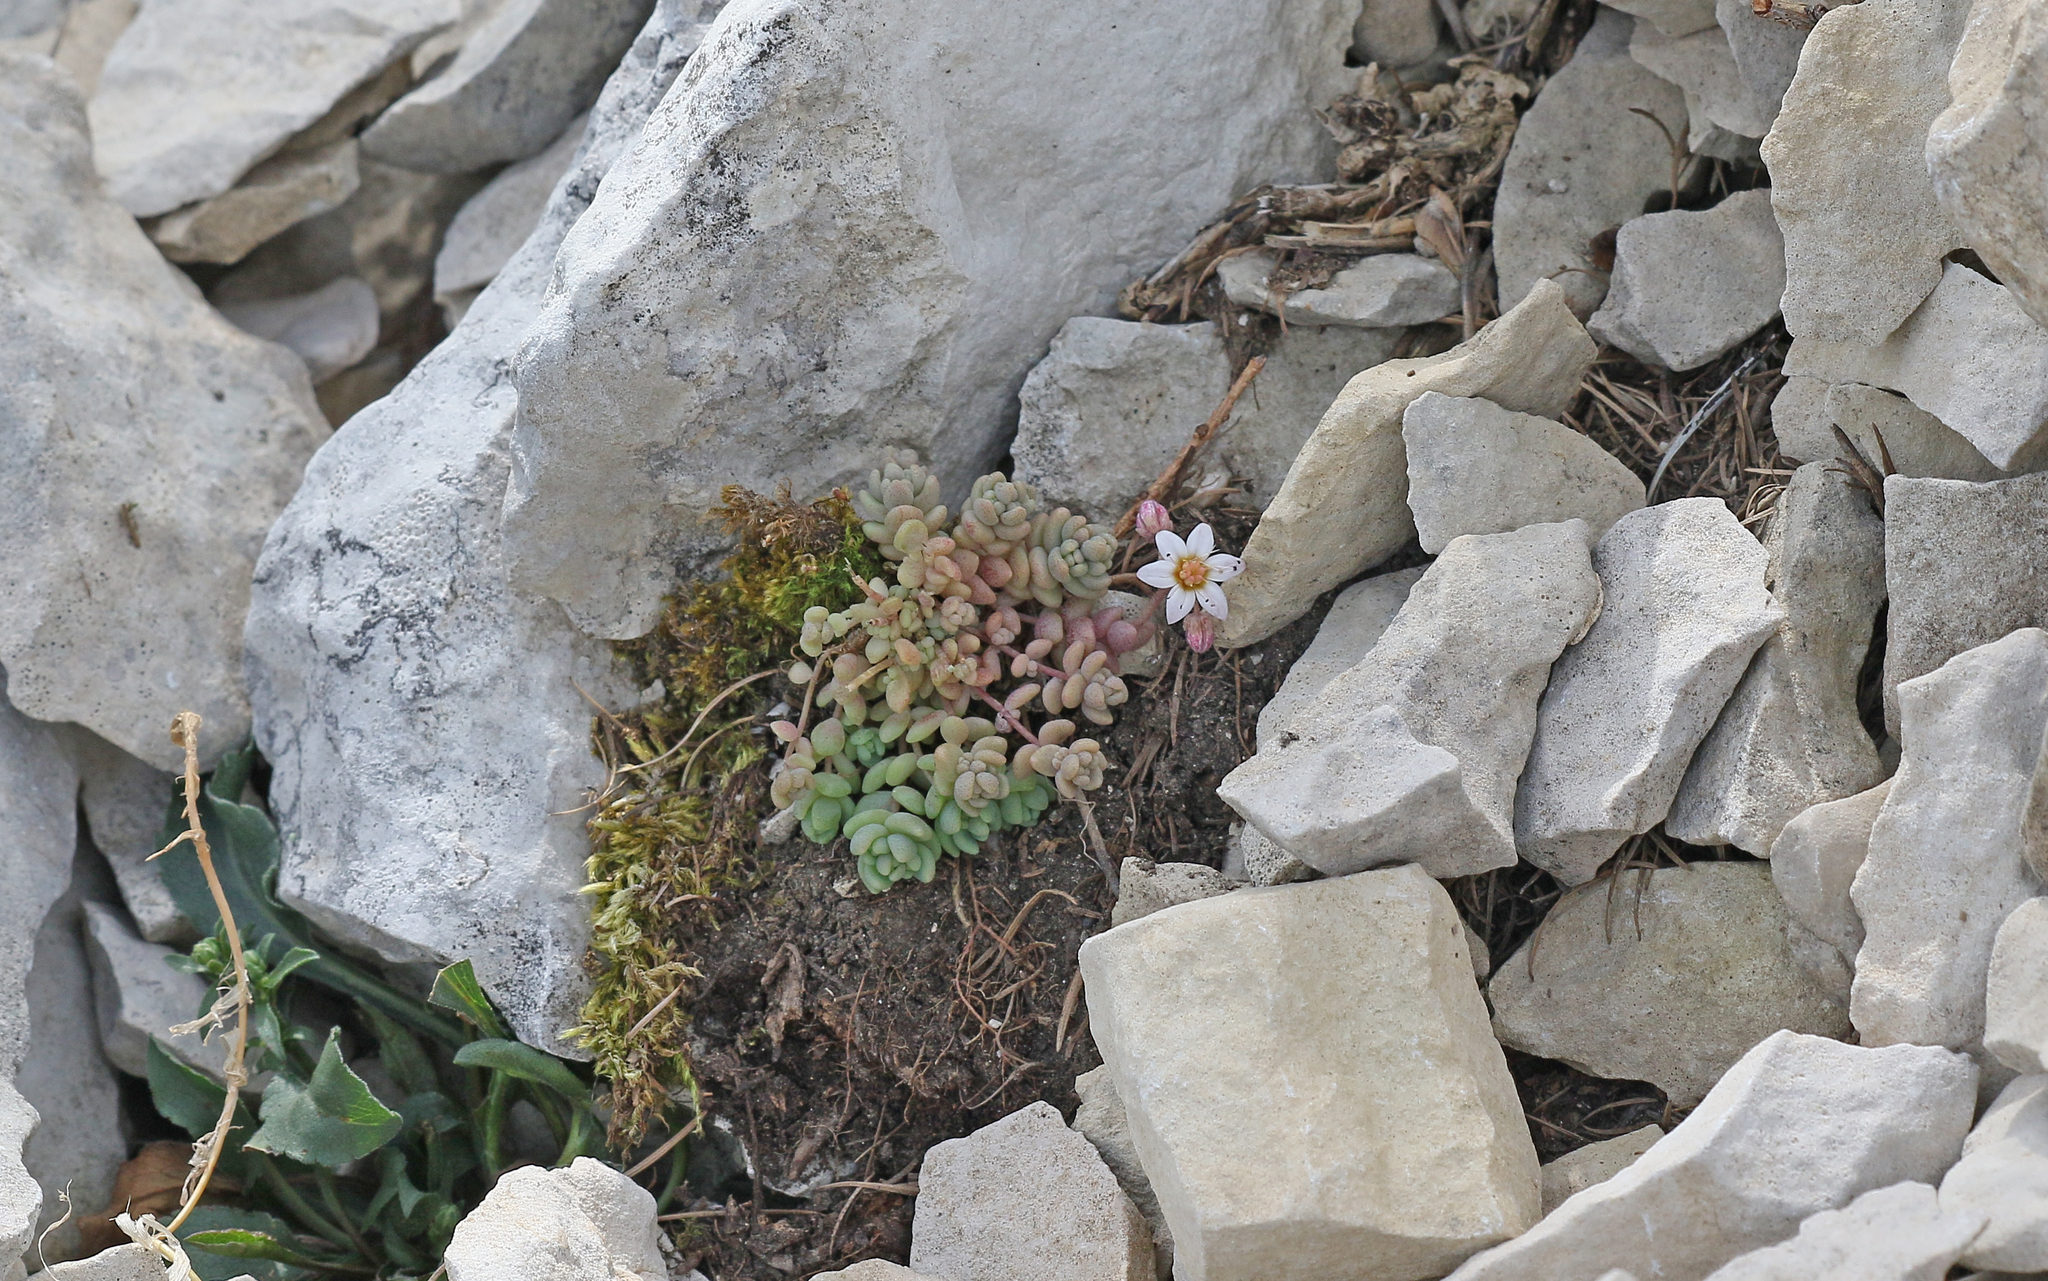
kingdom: Plantae
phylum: Tracheophyta
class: Magnoliopsida
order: Saxifragales
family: Crassulaceae
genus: Sedum
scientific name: Sedum dasyphyllum
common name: Thick-leaf stonecrop
